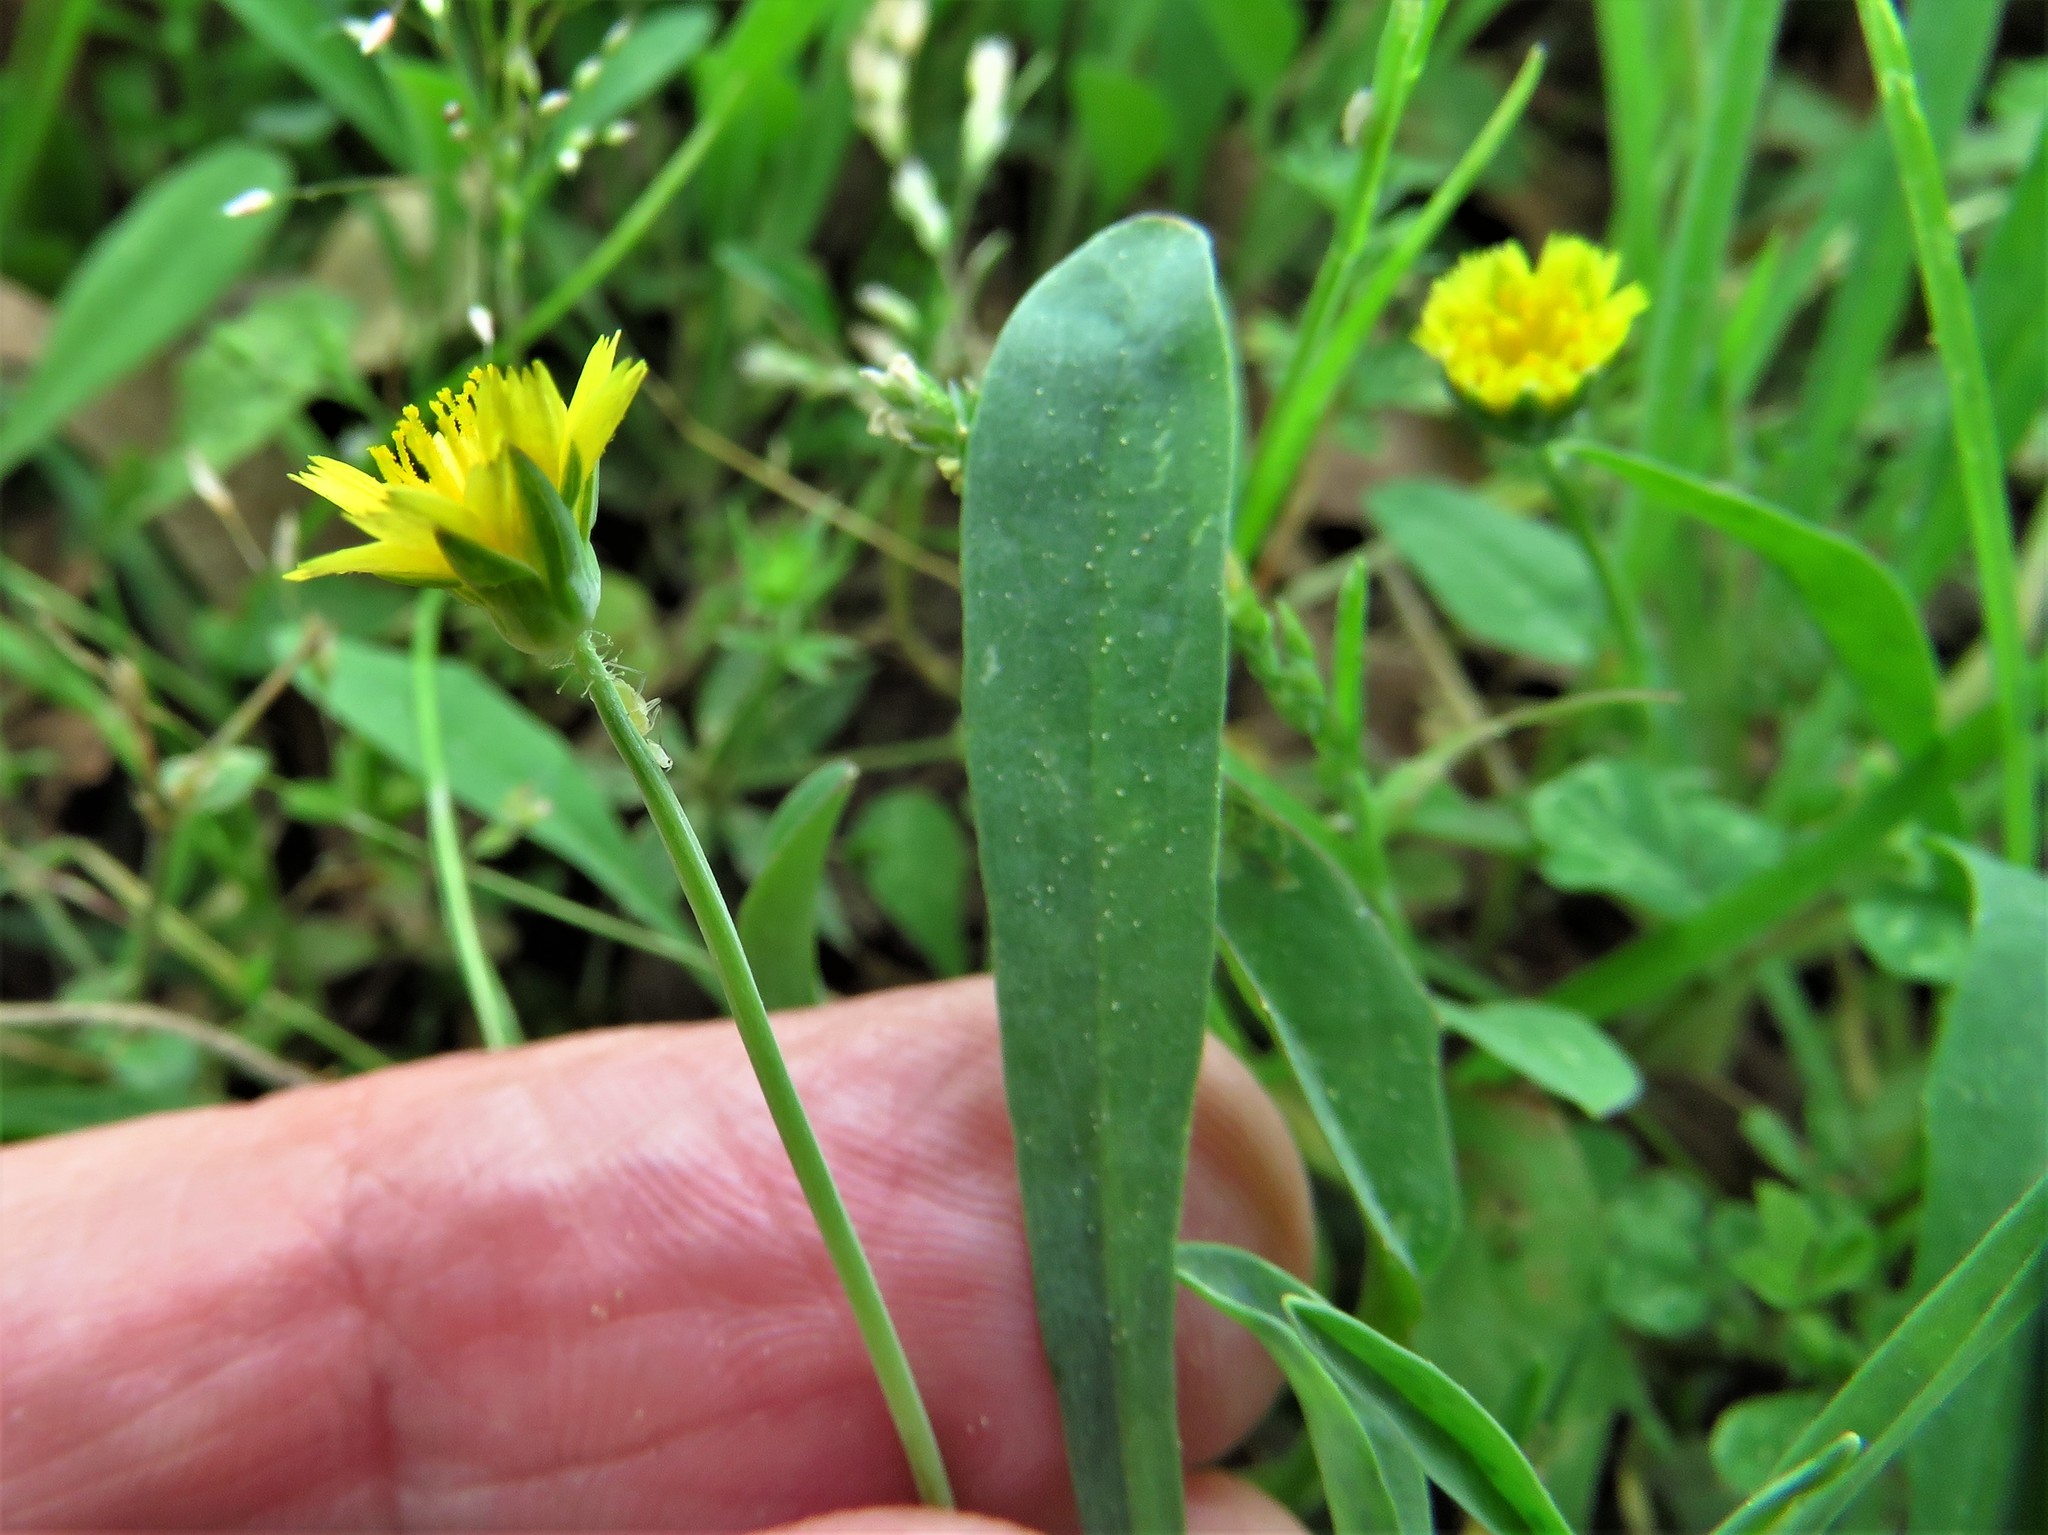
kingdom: Plantae
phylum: Tracheophyta
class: Magnoliopsida
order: Asterales
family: Asteraceae
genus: Krigia
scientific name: Krigia cespitosa
